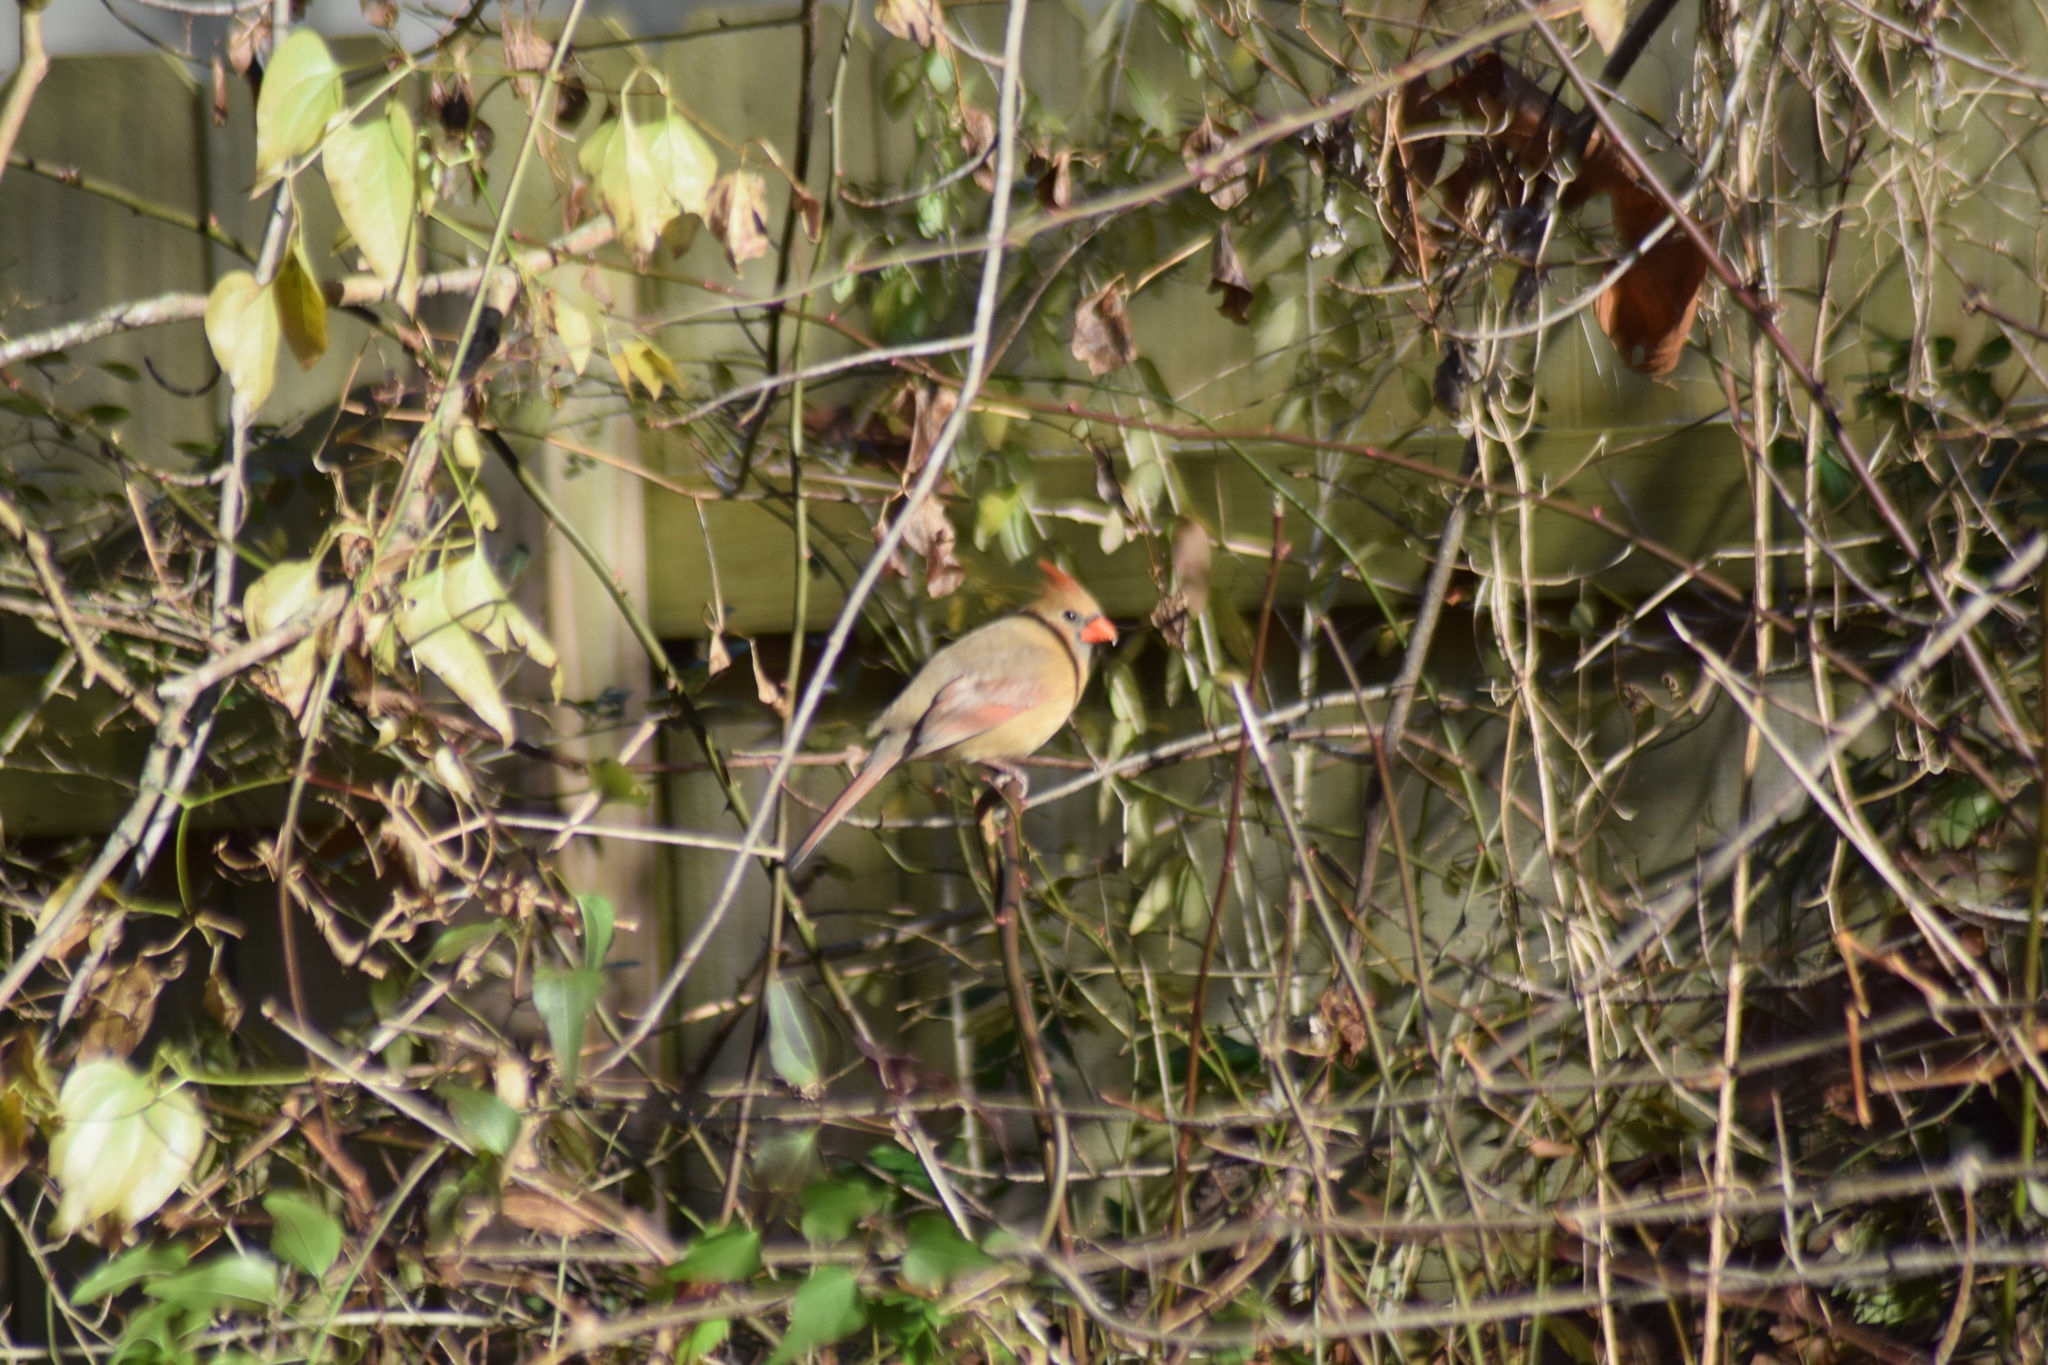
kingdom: Animalia
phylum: Chordata
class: Aves
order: Passeriformes
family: Cardinalidae
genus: Cardinalis
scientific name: Cardinalis cardinalis
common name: Northern cardinal
